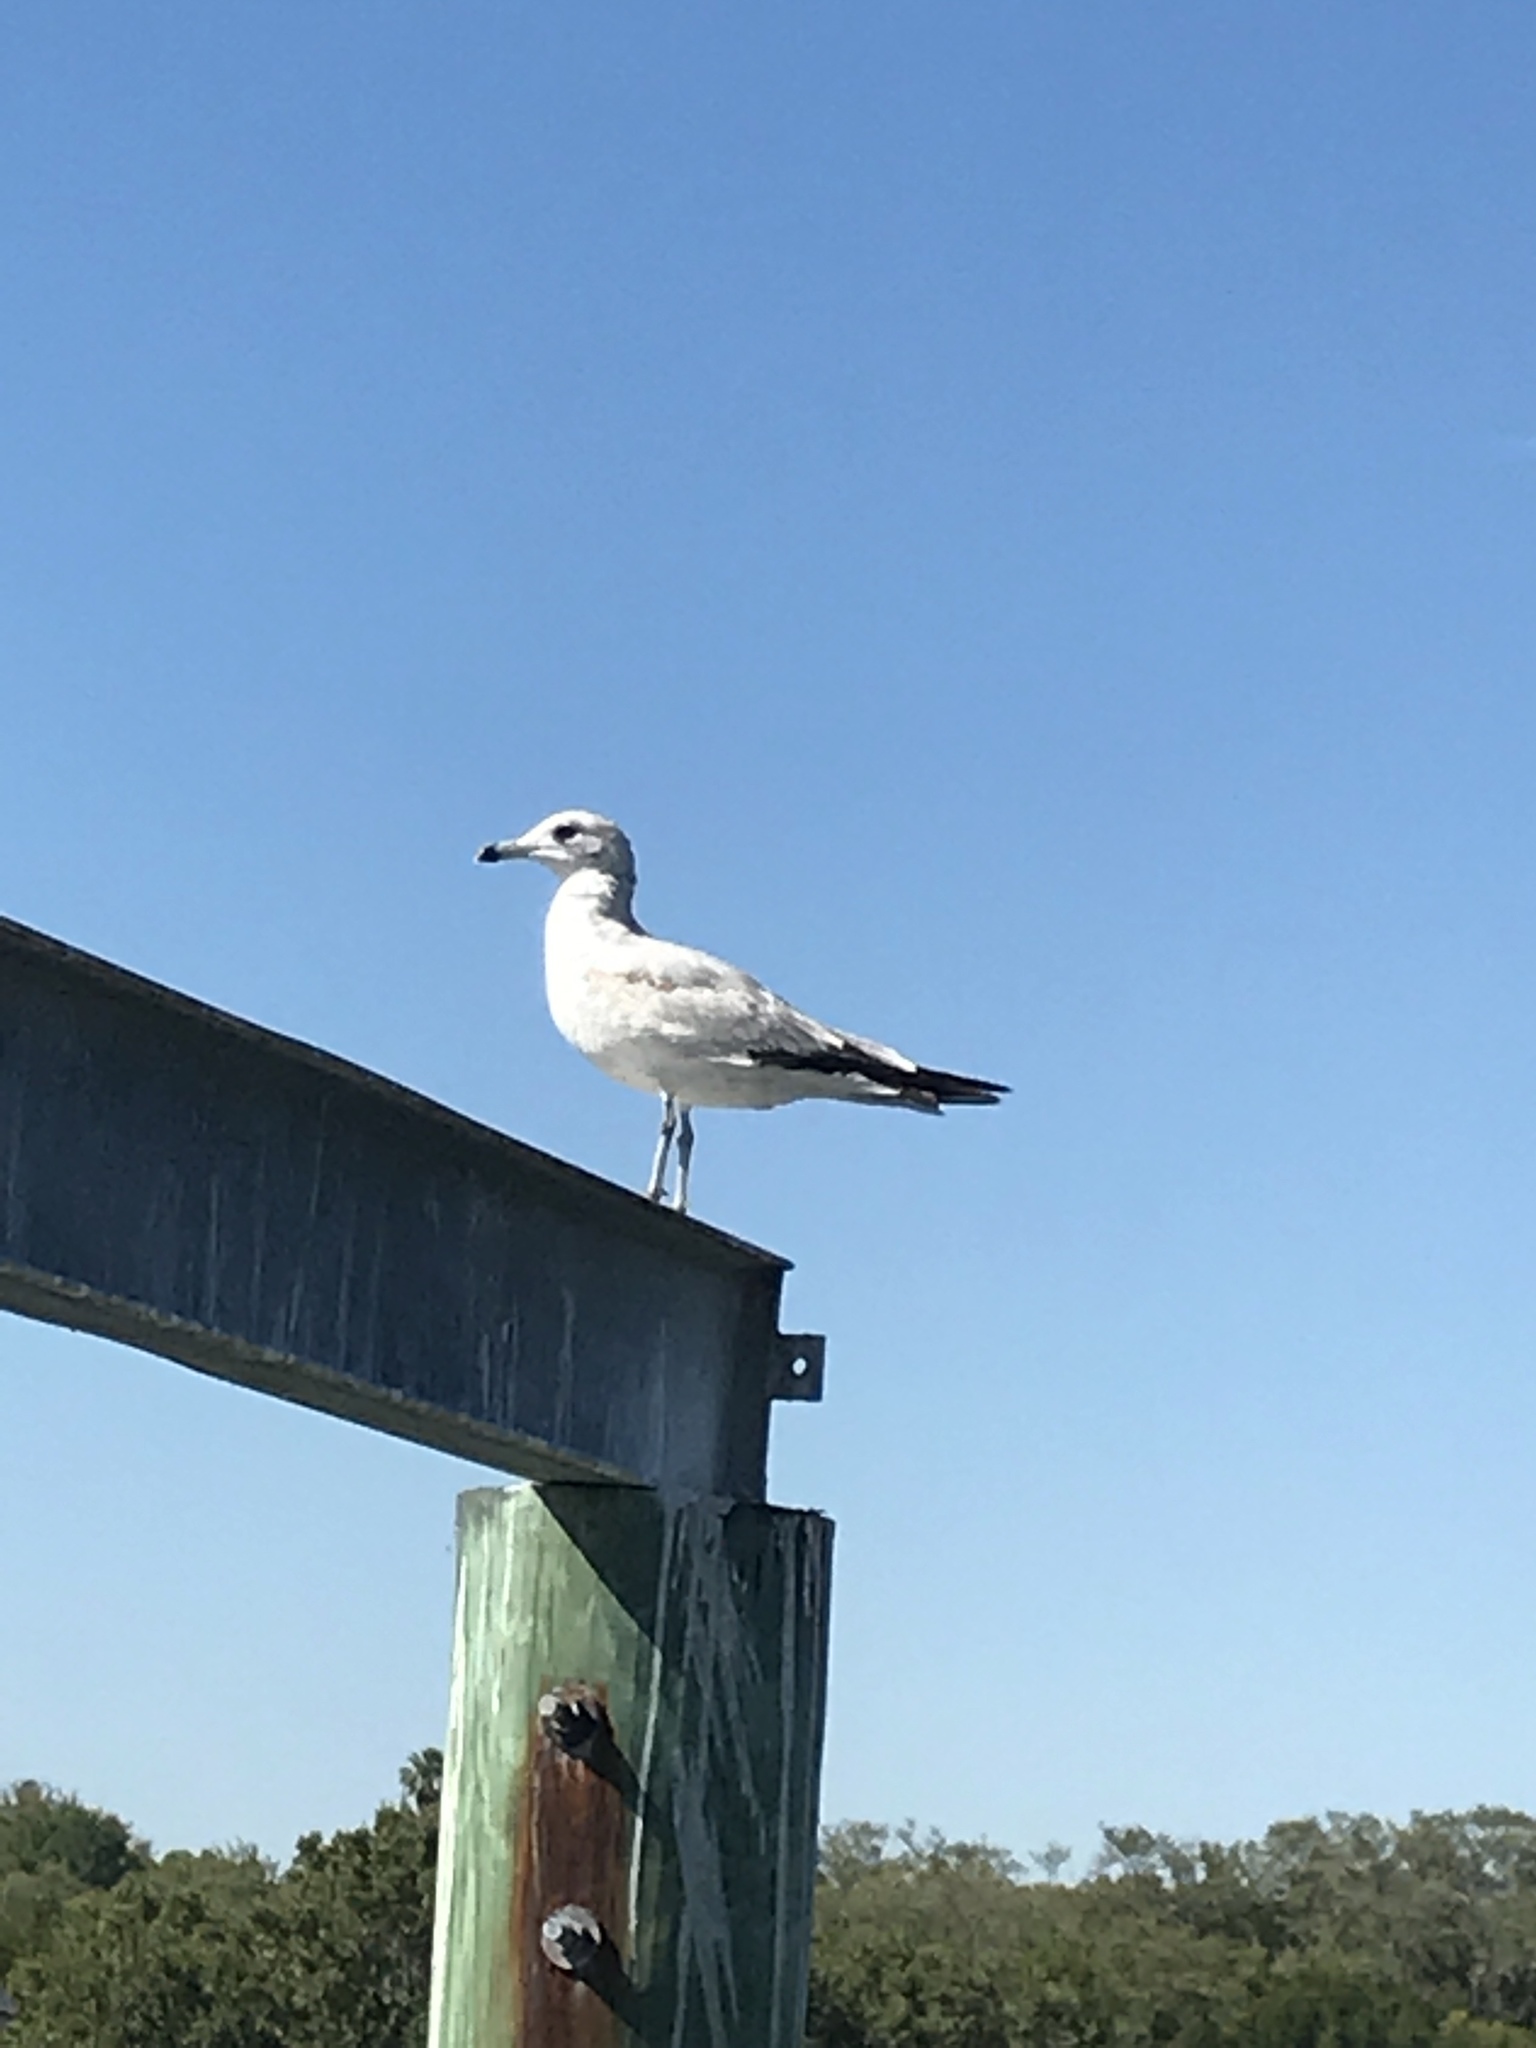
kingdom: Animalia
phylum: Chordata
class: Aves
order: Charadriiformes
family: Laridae
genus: Larus
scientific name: Larus delawarensis
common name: Ring-billed gull
